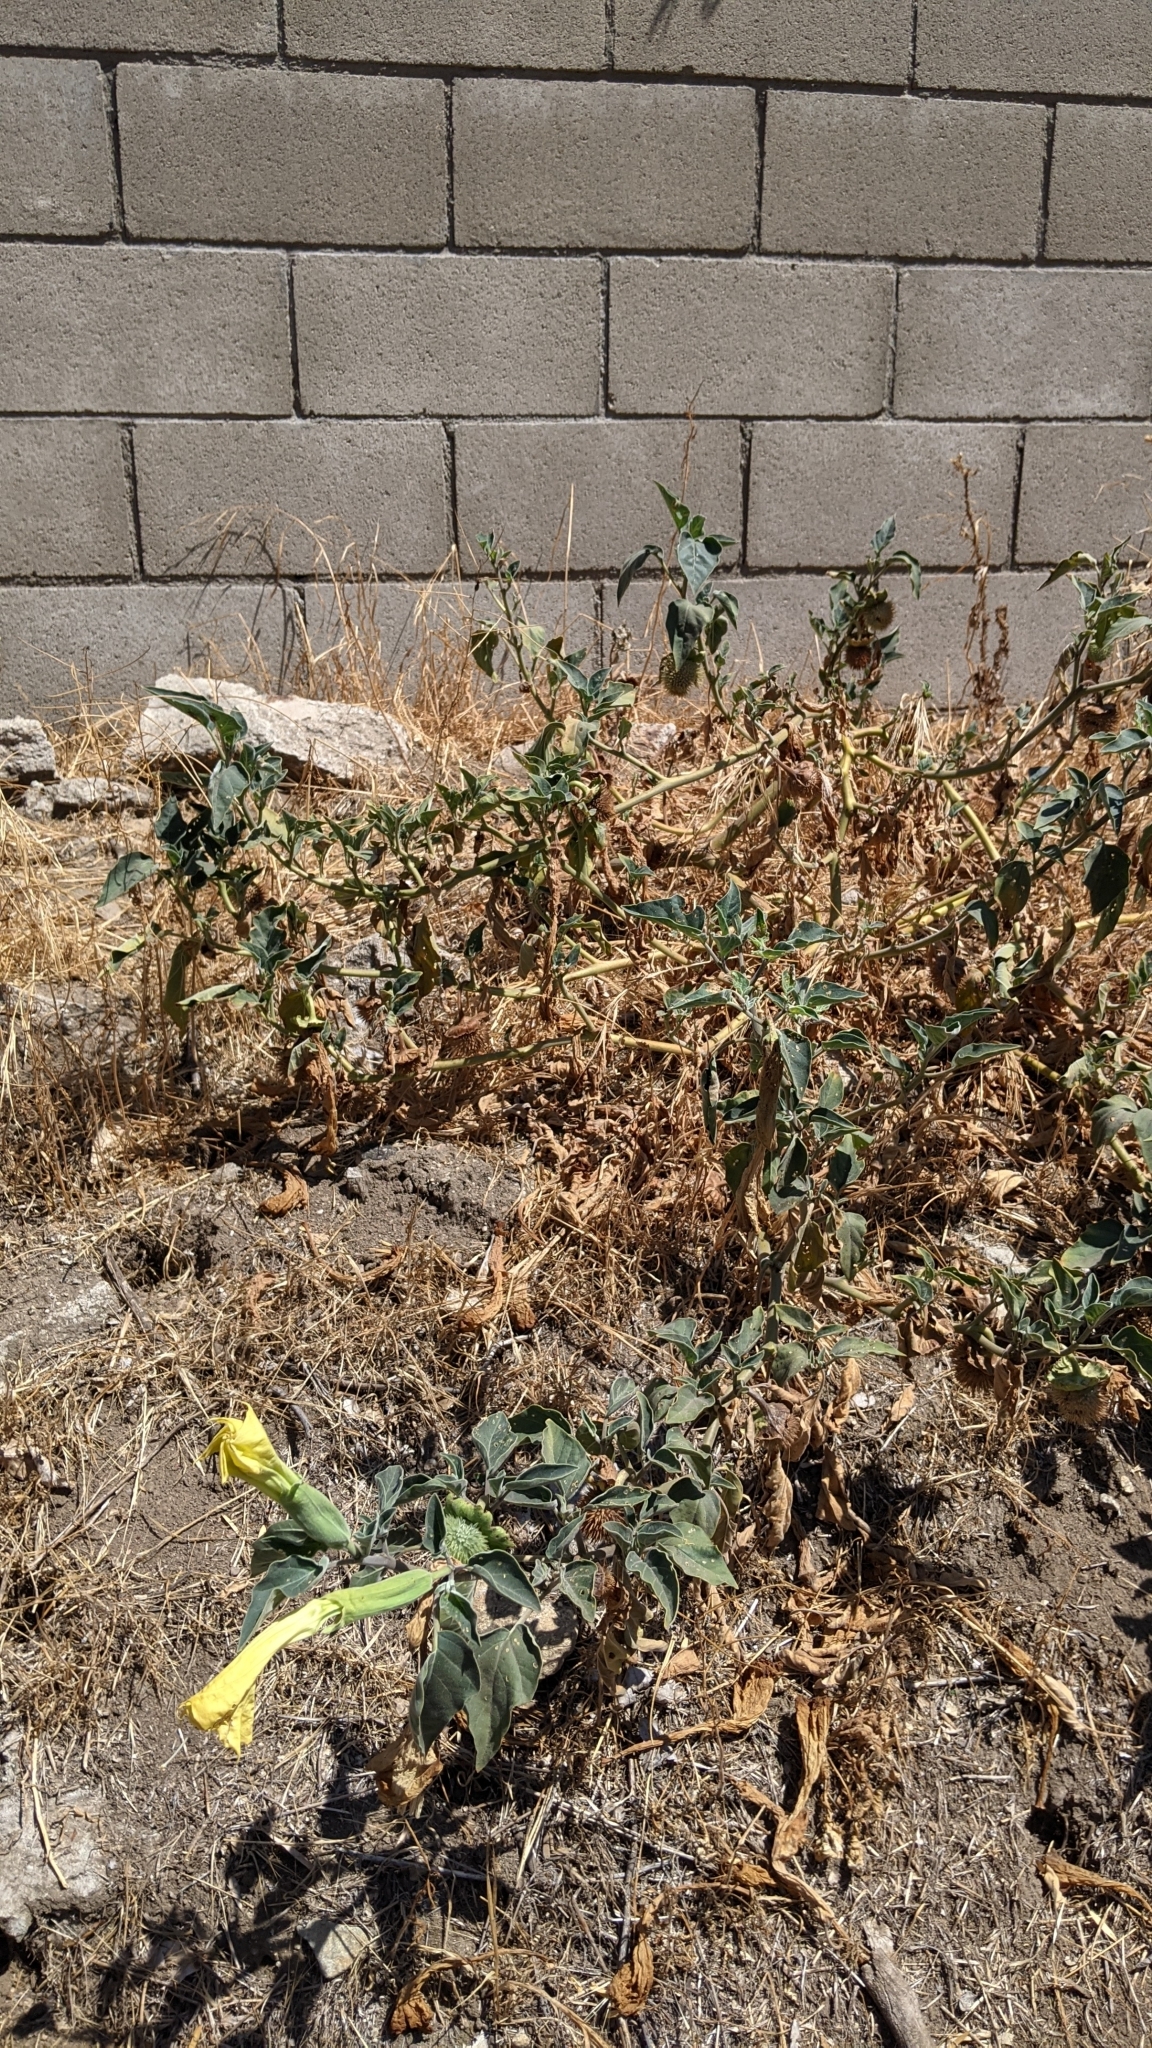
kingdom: Plantae
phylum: Tracheophyta
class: Magnoliopsida
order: Solanales
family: Solanaceae
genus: Datura
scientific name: Datura wrightii
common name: Sacred thorn-apple
